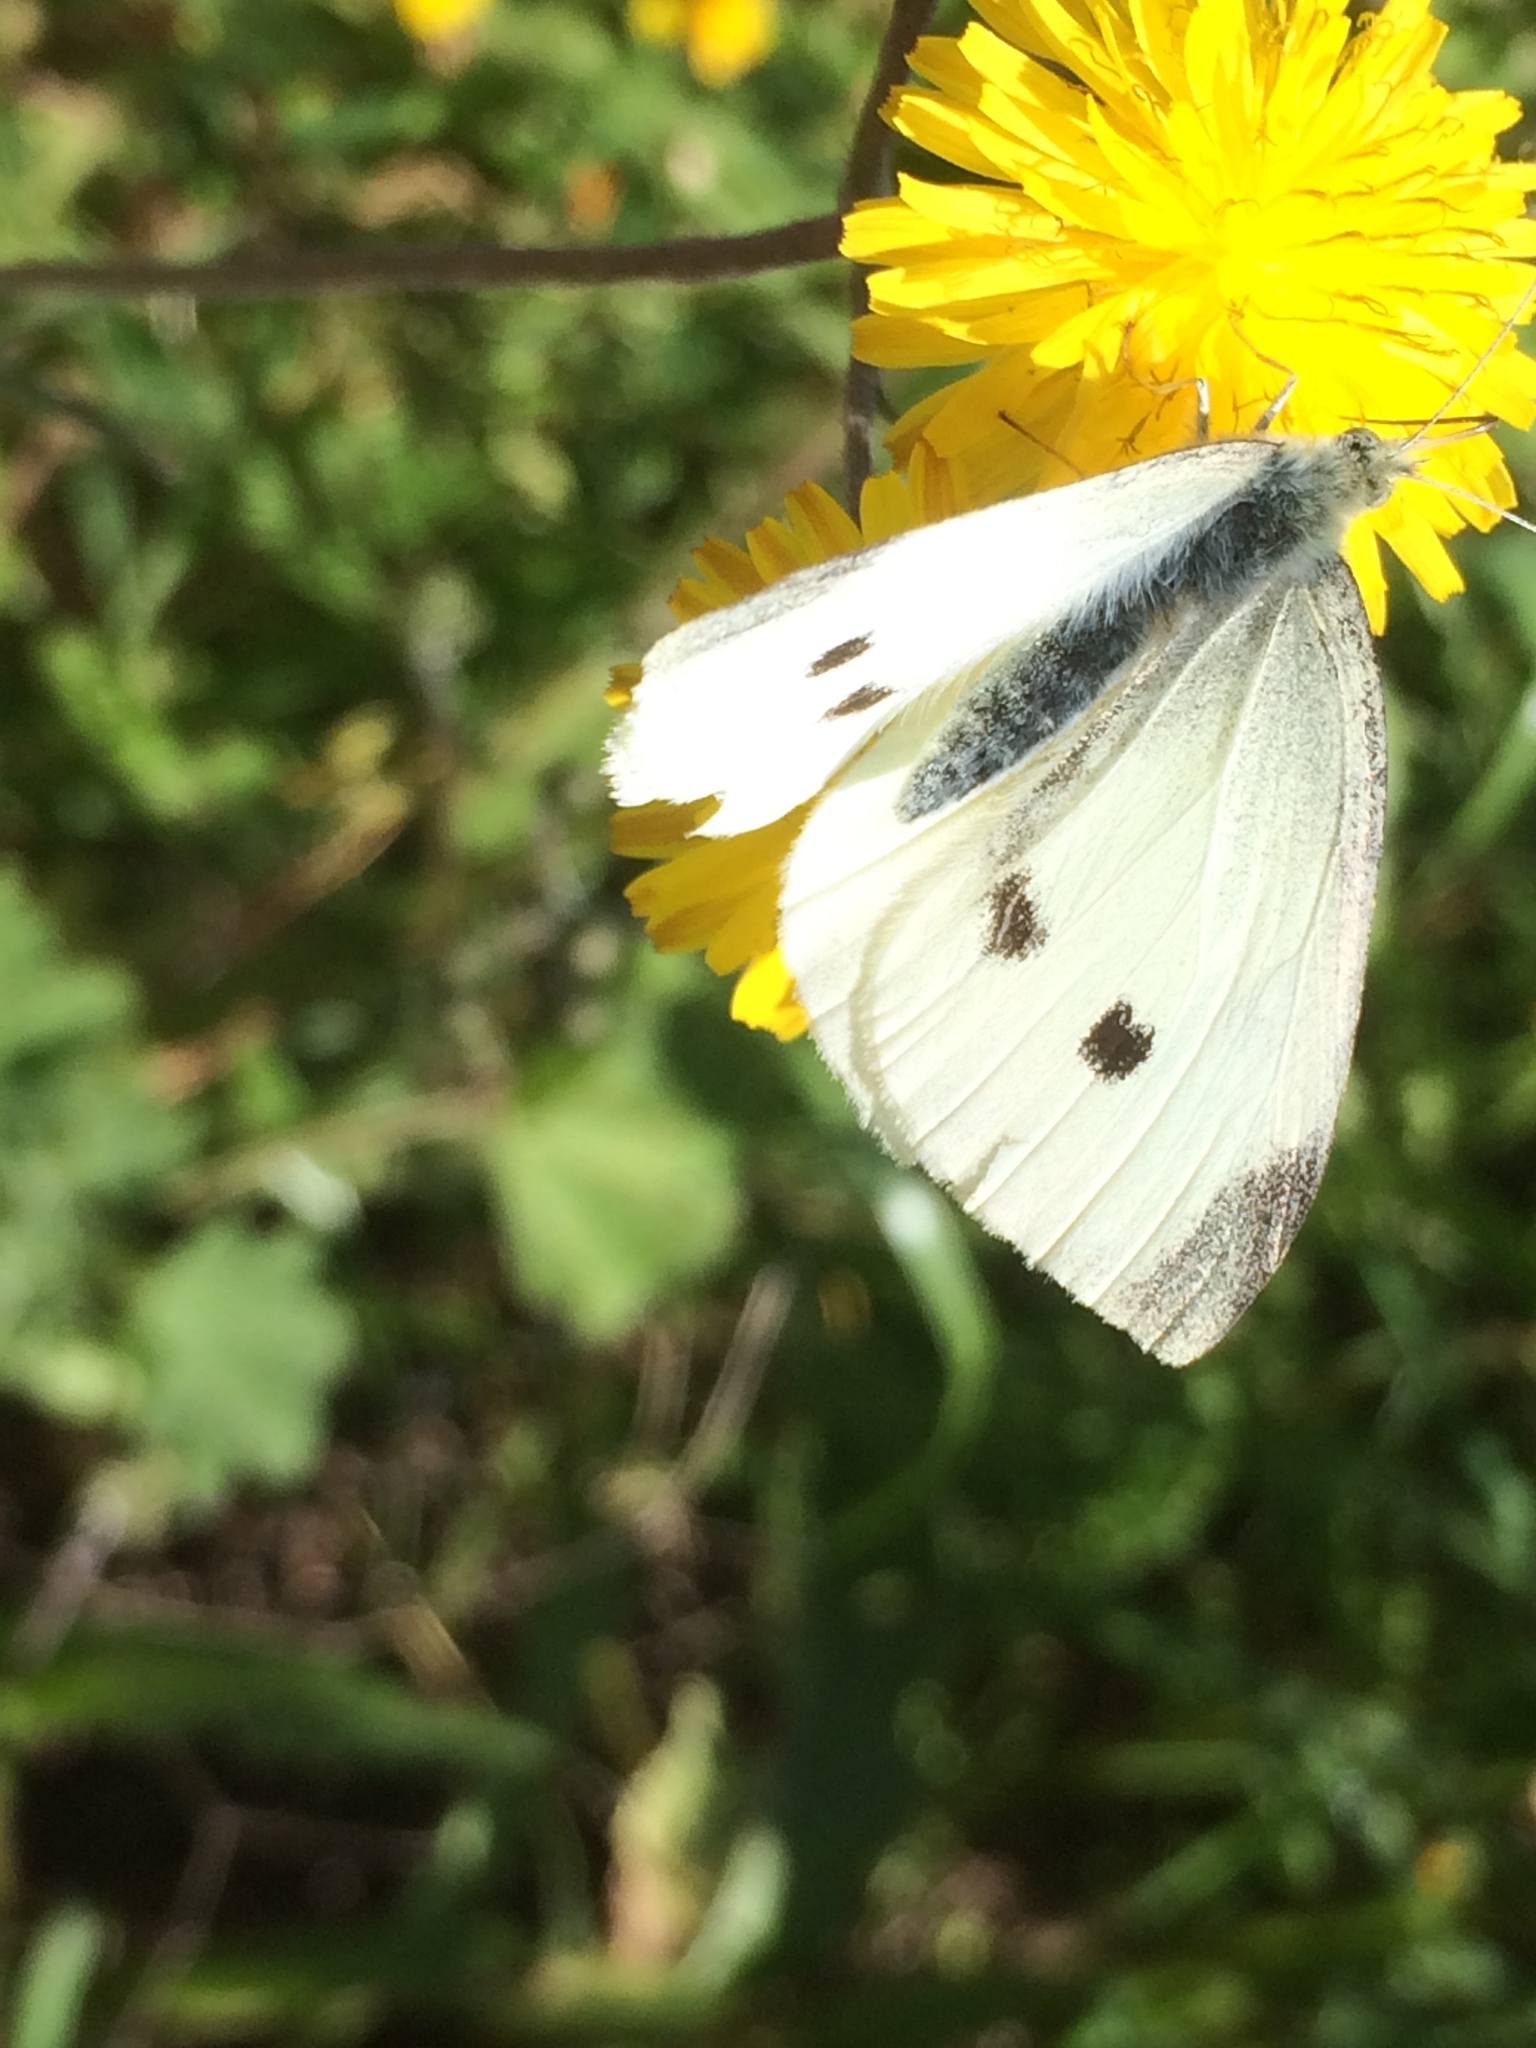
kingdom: Animalia
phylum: Arthropoda
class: Insecta
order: Lepidoptera
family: Pieridae
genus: Pieris
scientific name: Pieris rapae
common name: Small white
